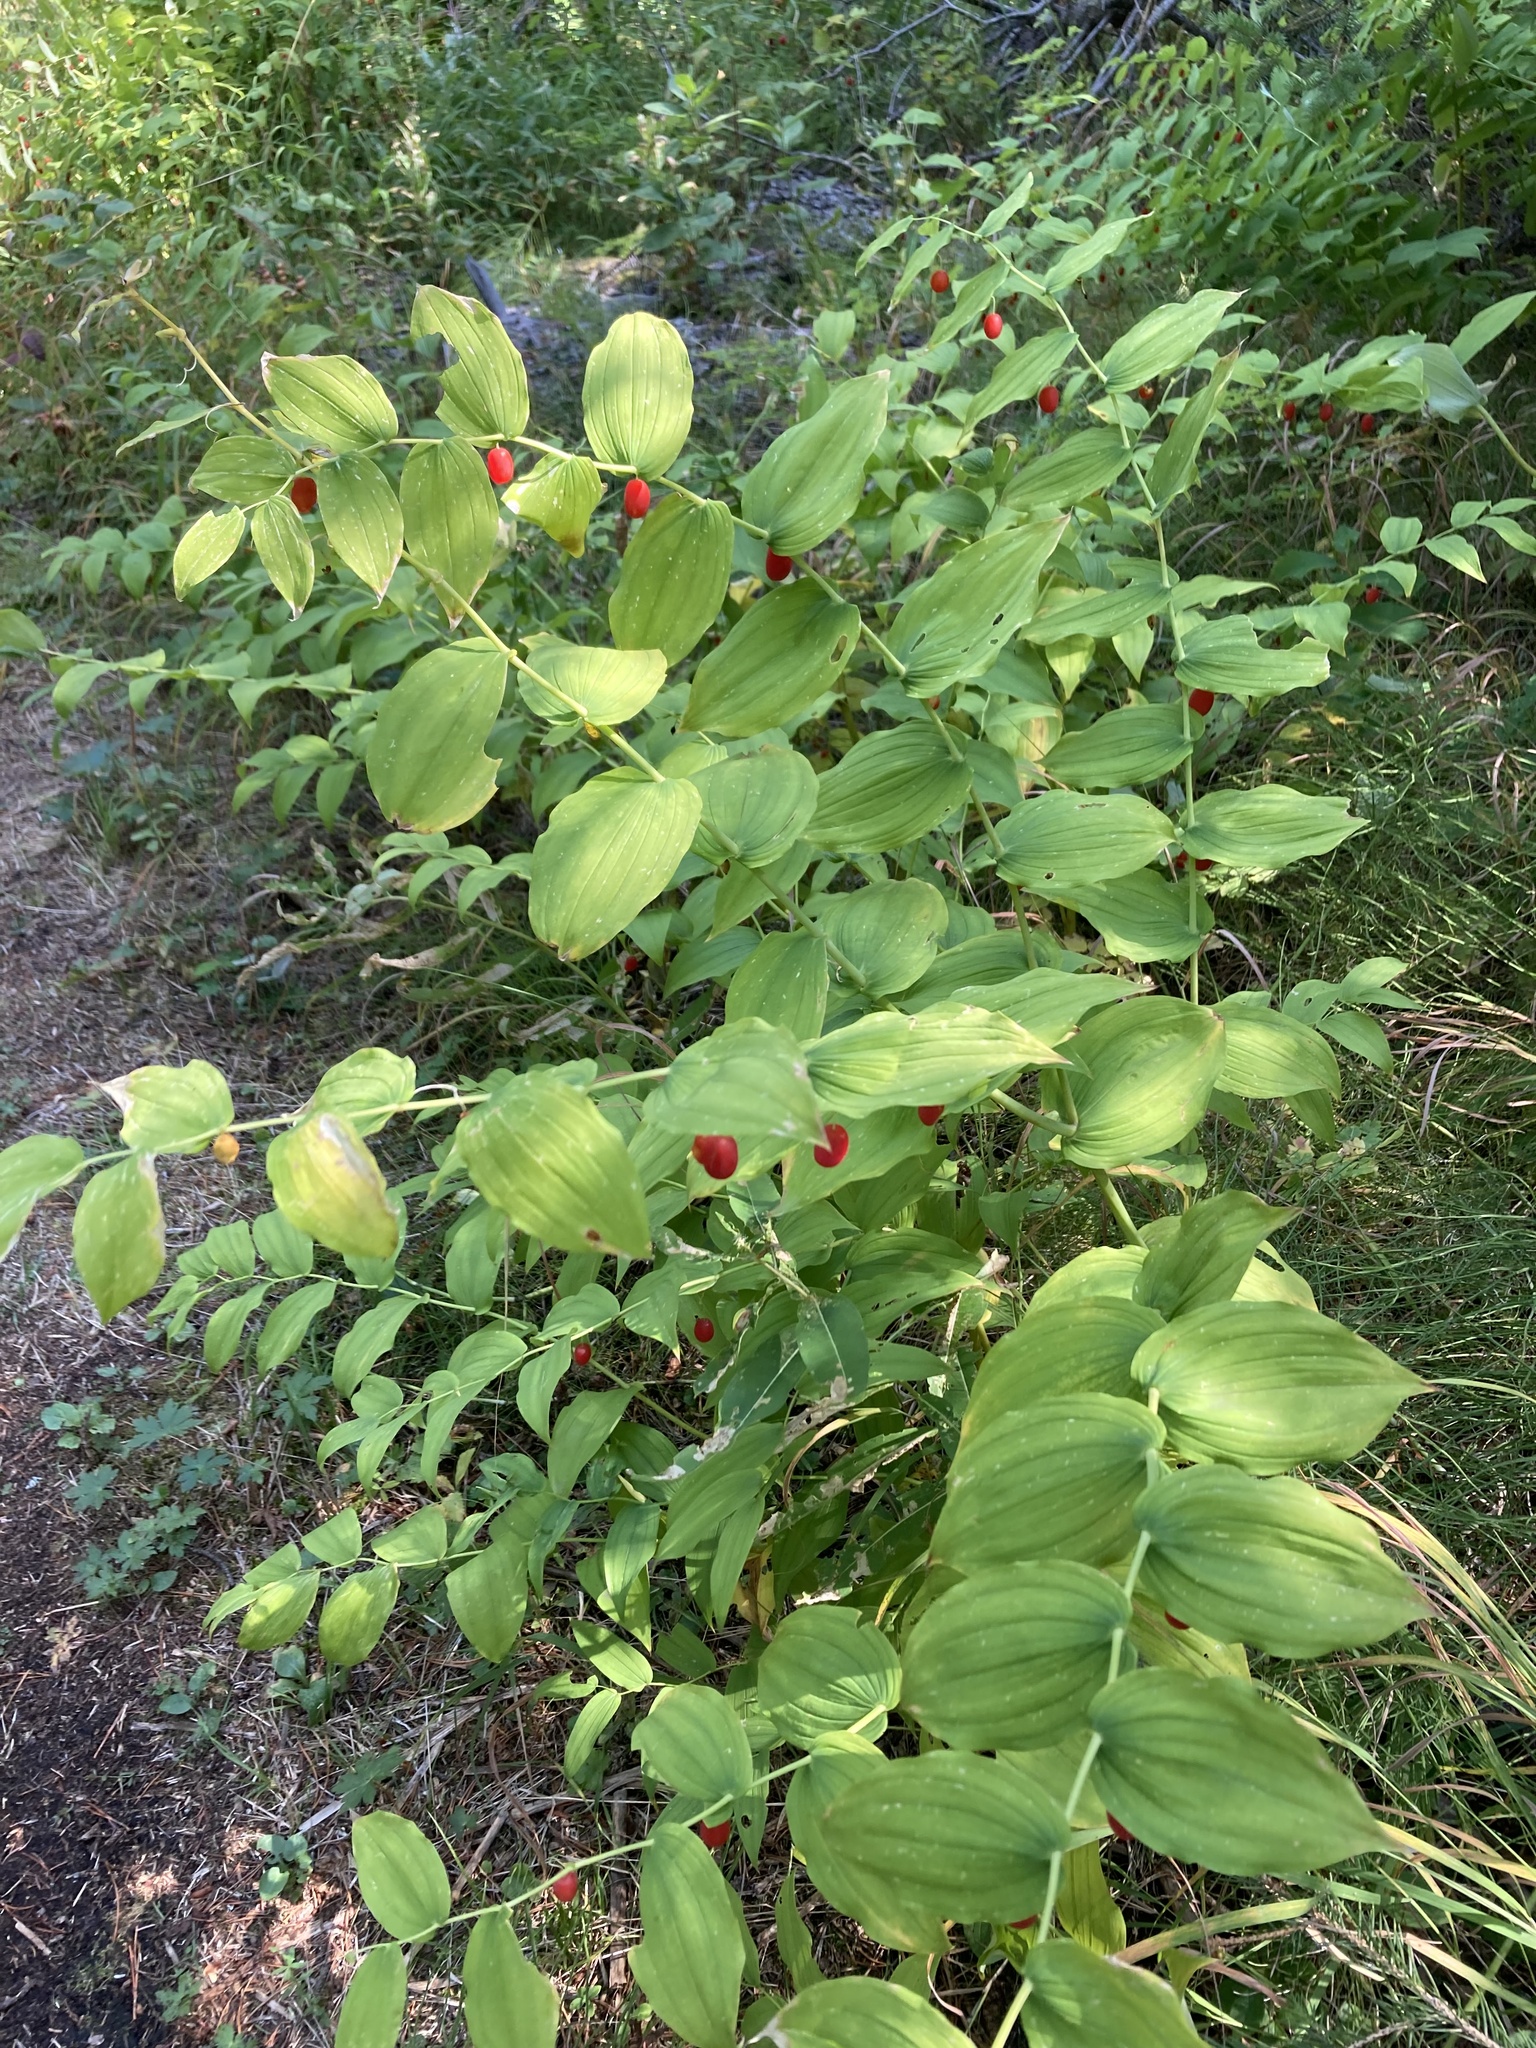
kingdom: Plantae
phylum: Tracheophyta
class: Liliopsida
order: Liliales
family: Liliaceae
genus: Streptopus
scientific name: Streptopus amplexifolius
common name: Clasp twisted stalk
